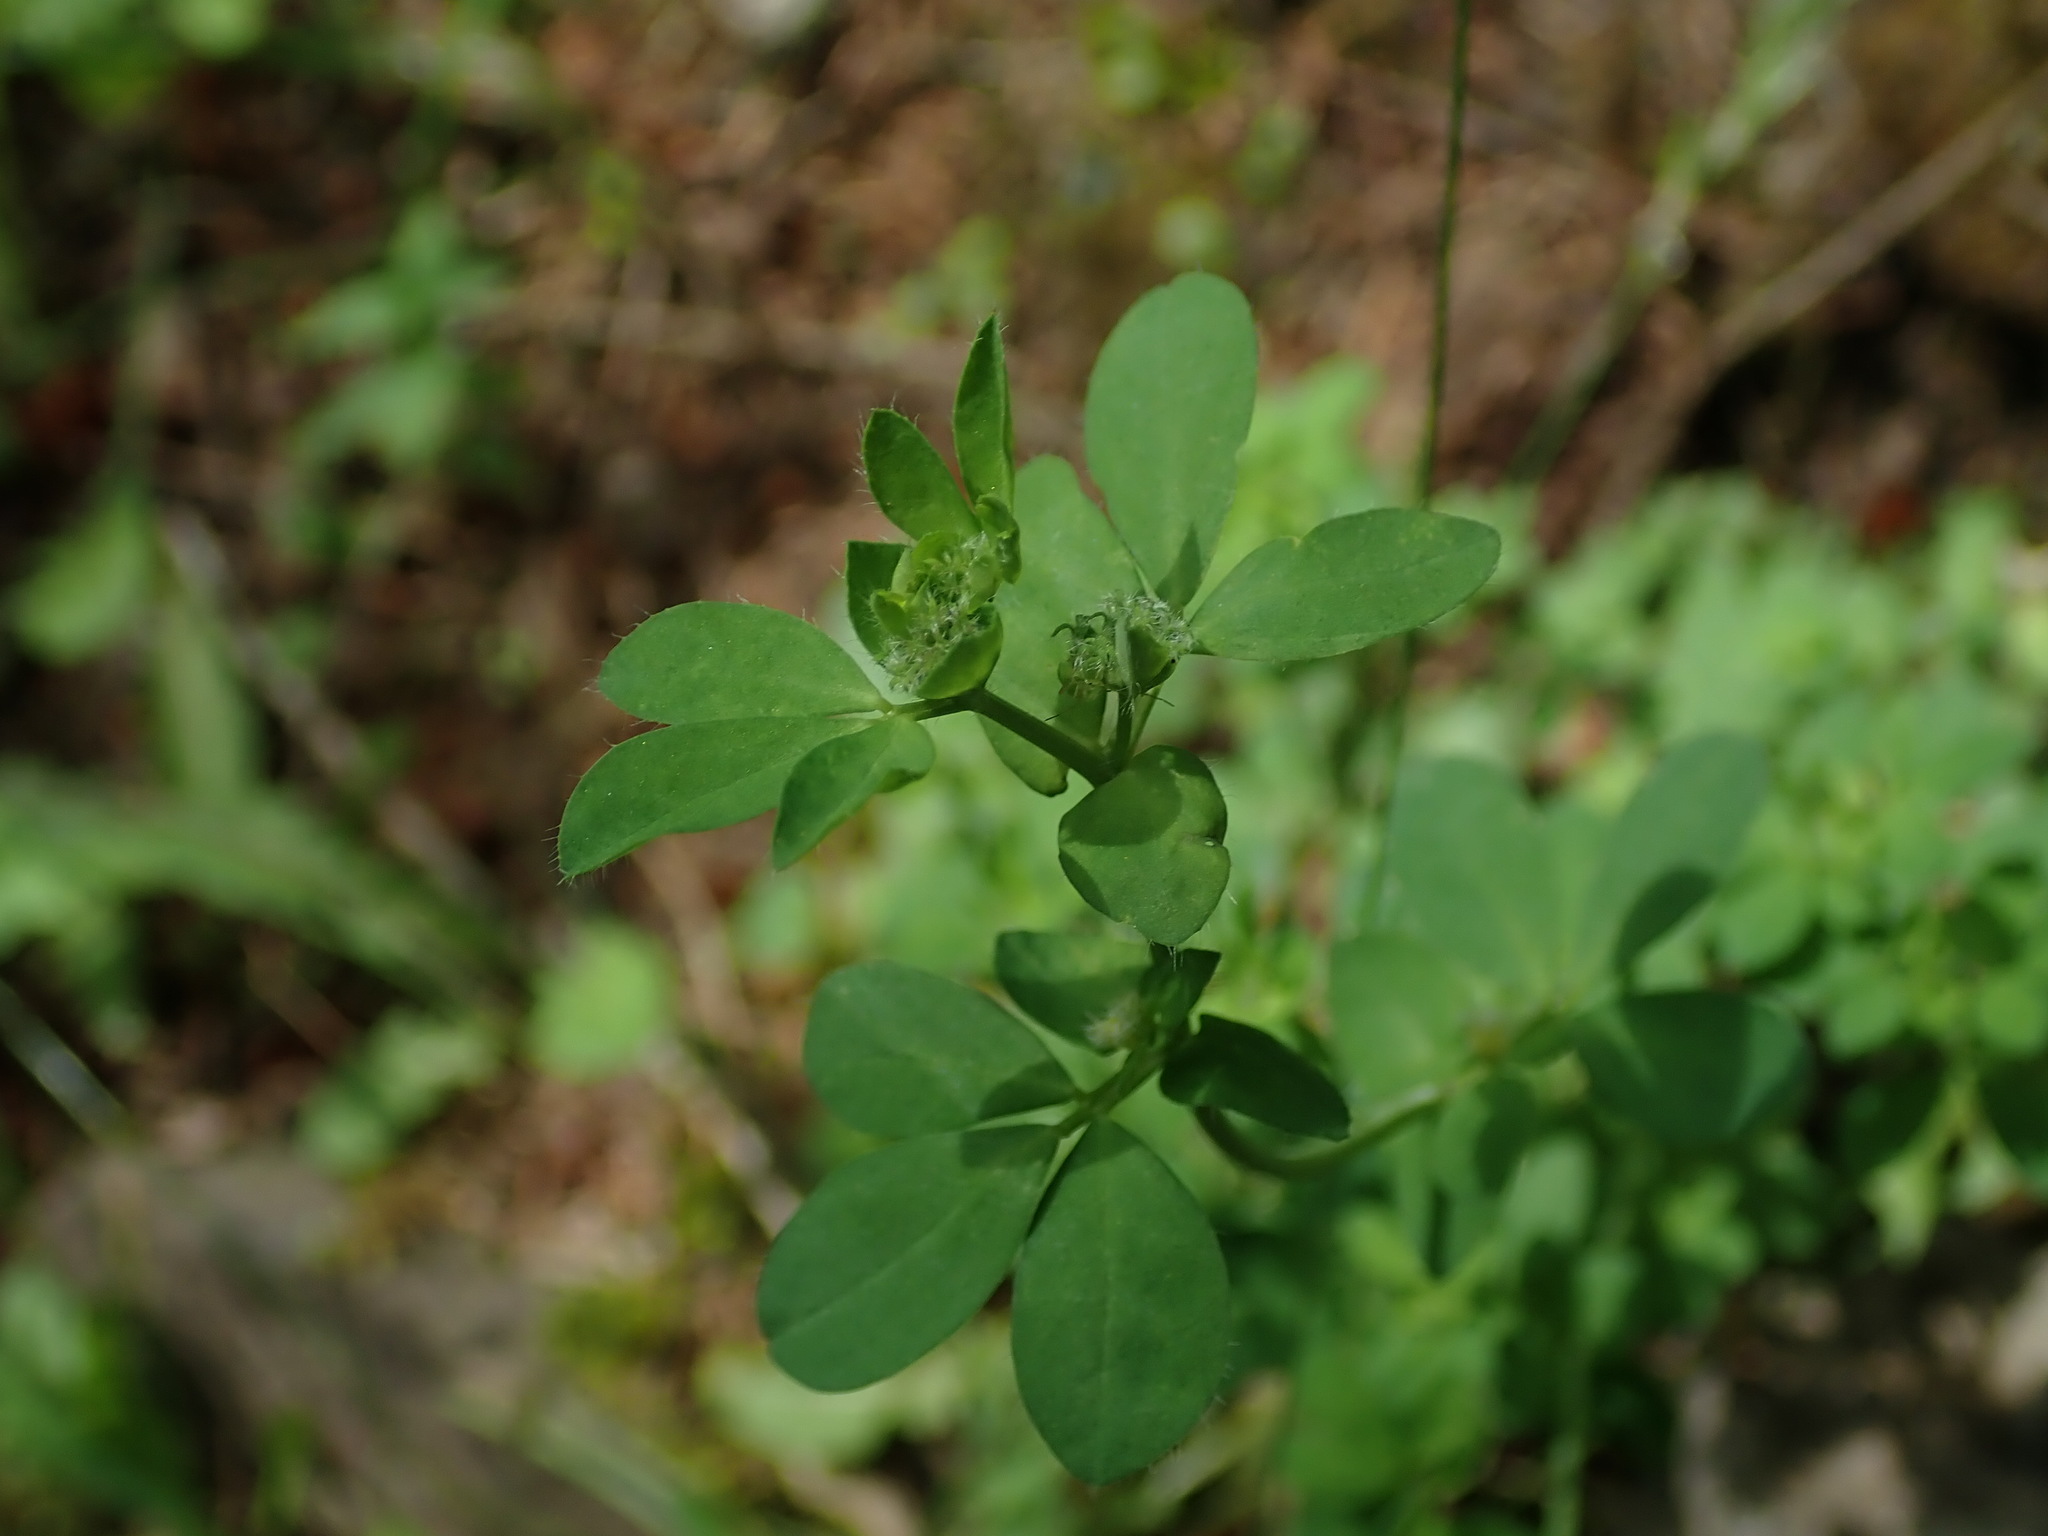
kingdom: Plantae
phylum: Tracheophyta
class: Magnoliopsida
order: Fabales
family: Fabaceae
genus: Lotus
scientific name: Lotus pedunculatus
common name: Greater birdsfoot-trefoil
